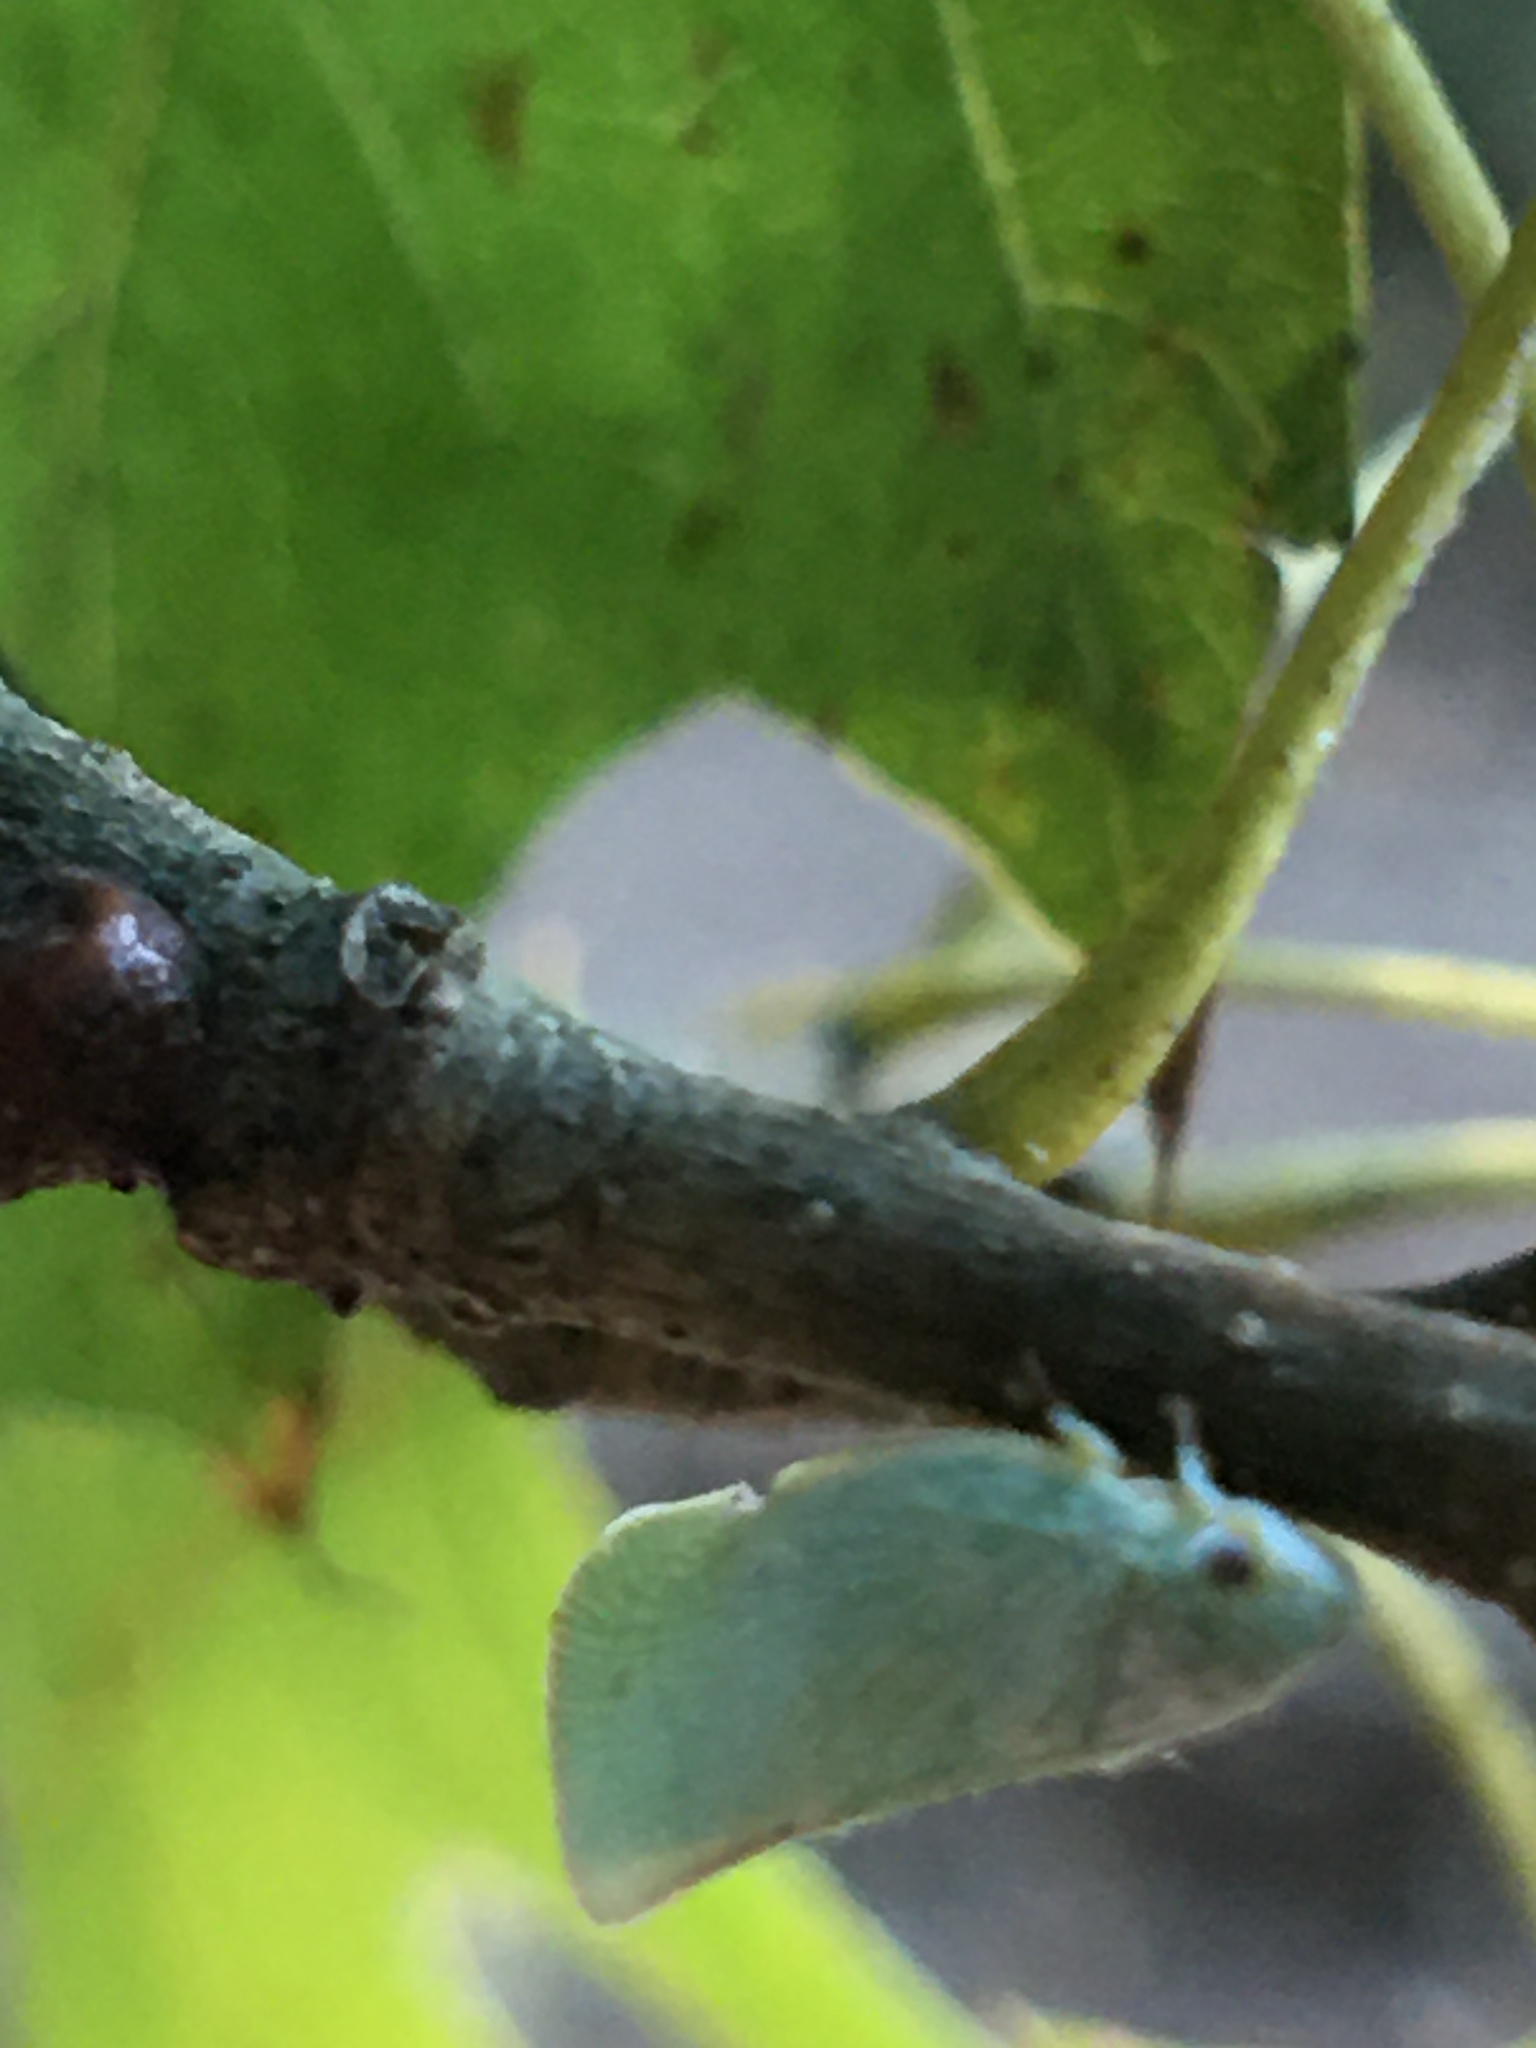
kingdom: Animalia
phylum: Arthropoda
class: Insecta
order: Hemiptera
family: Flatidae
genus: Flatormenis
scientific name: Flatormenis proxima
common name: Northern flatid planthopper
